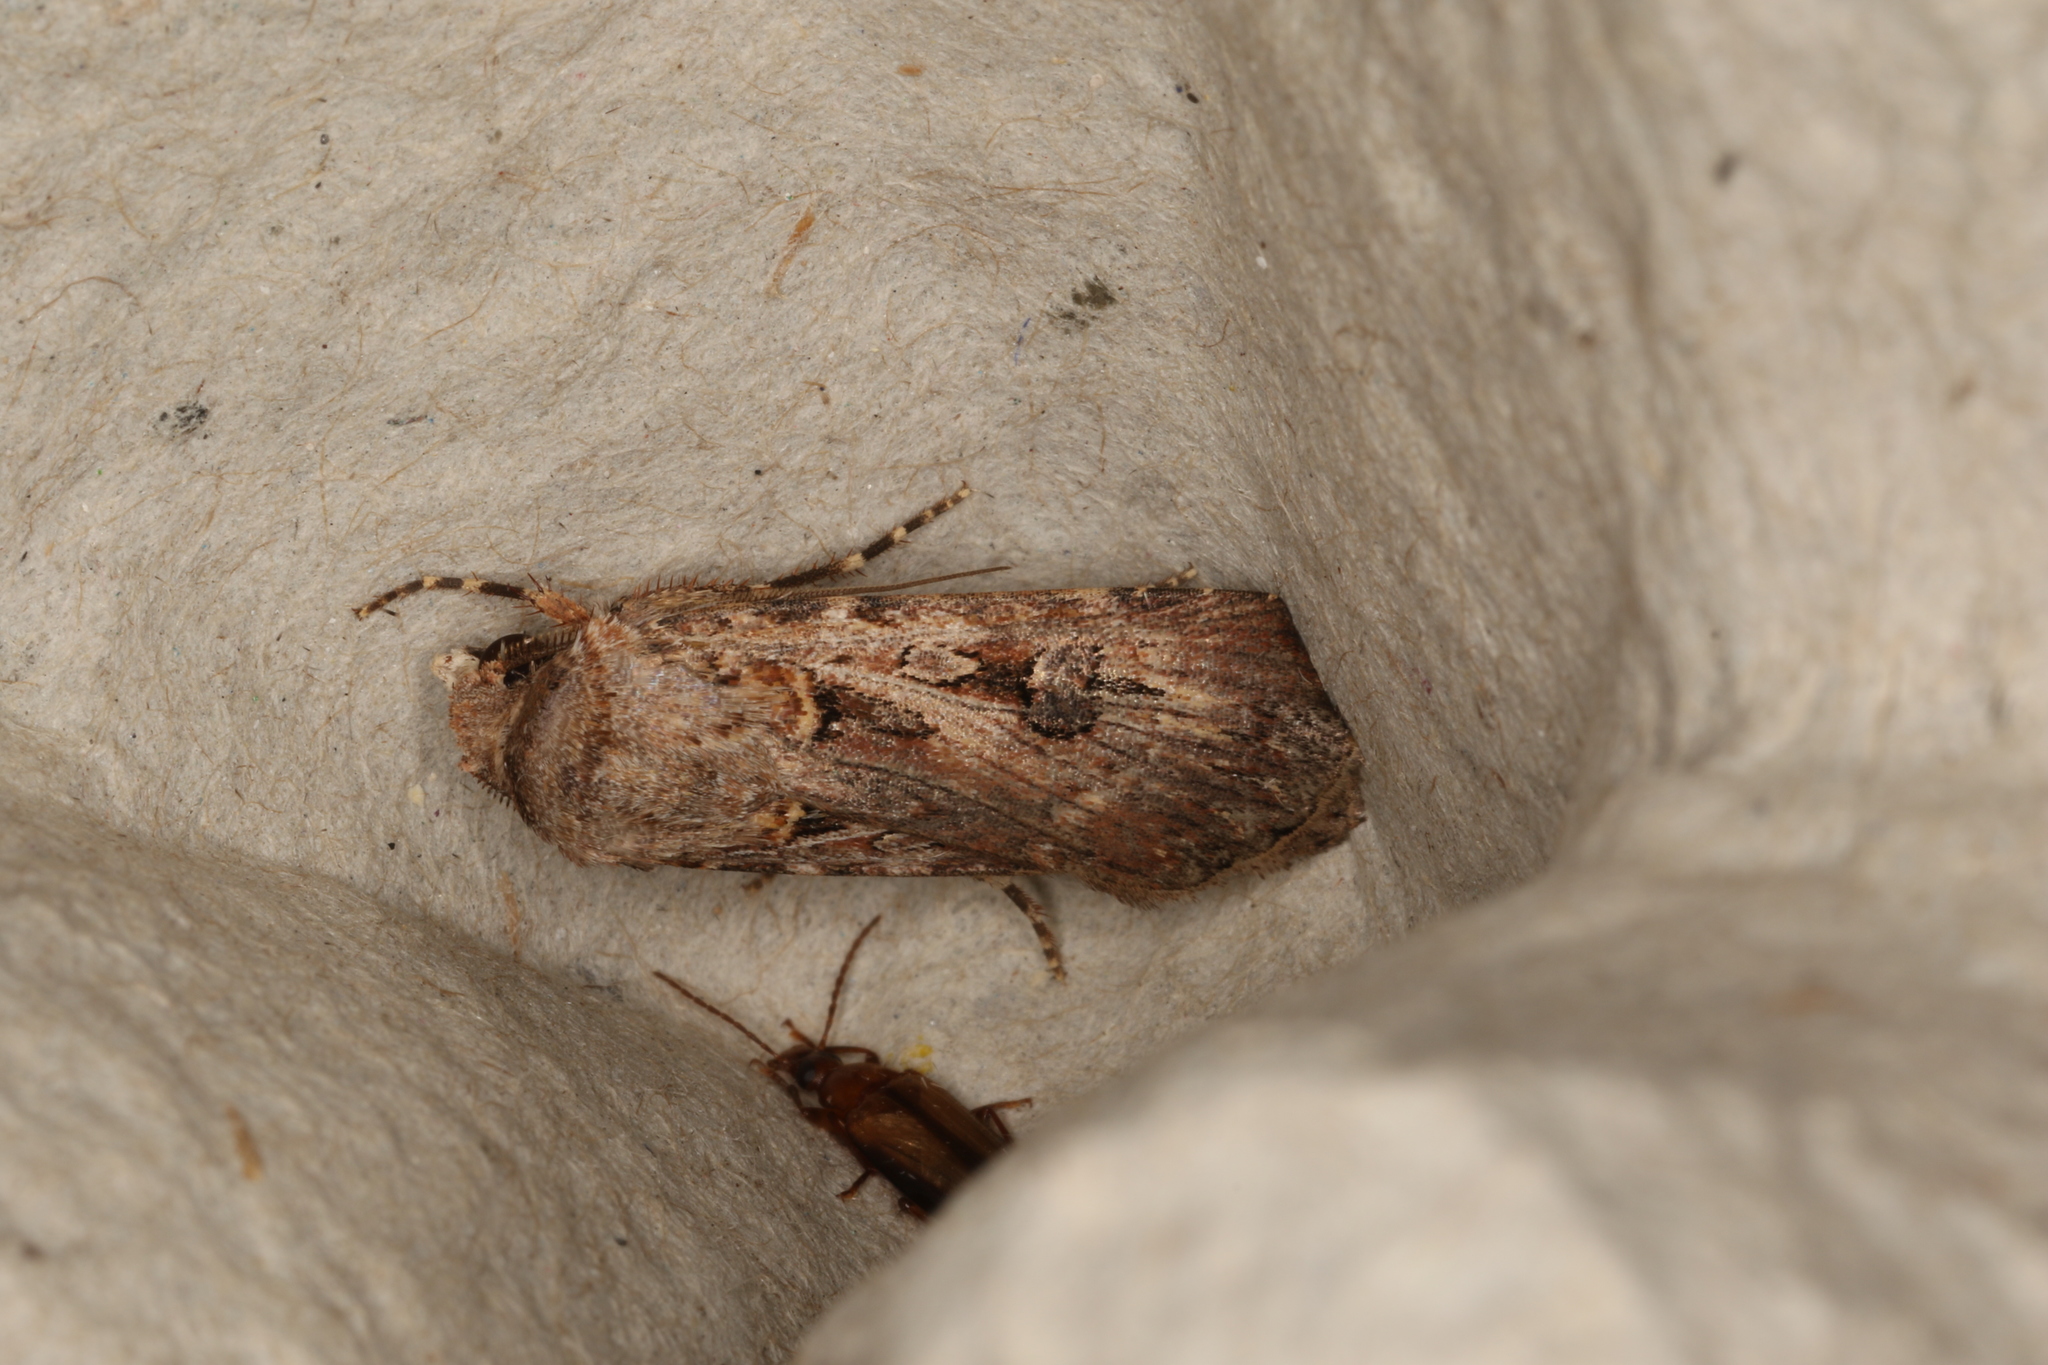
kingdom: Animalia
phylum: Arthropoda
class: Insecta
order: Lepidoptera
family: Noctuidae
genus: Agrotis
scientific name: Agrotis munda
